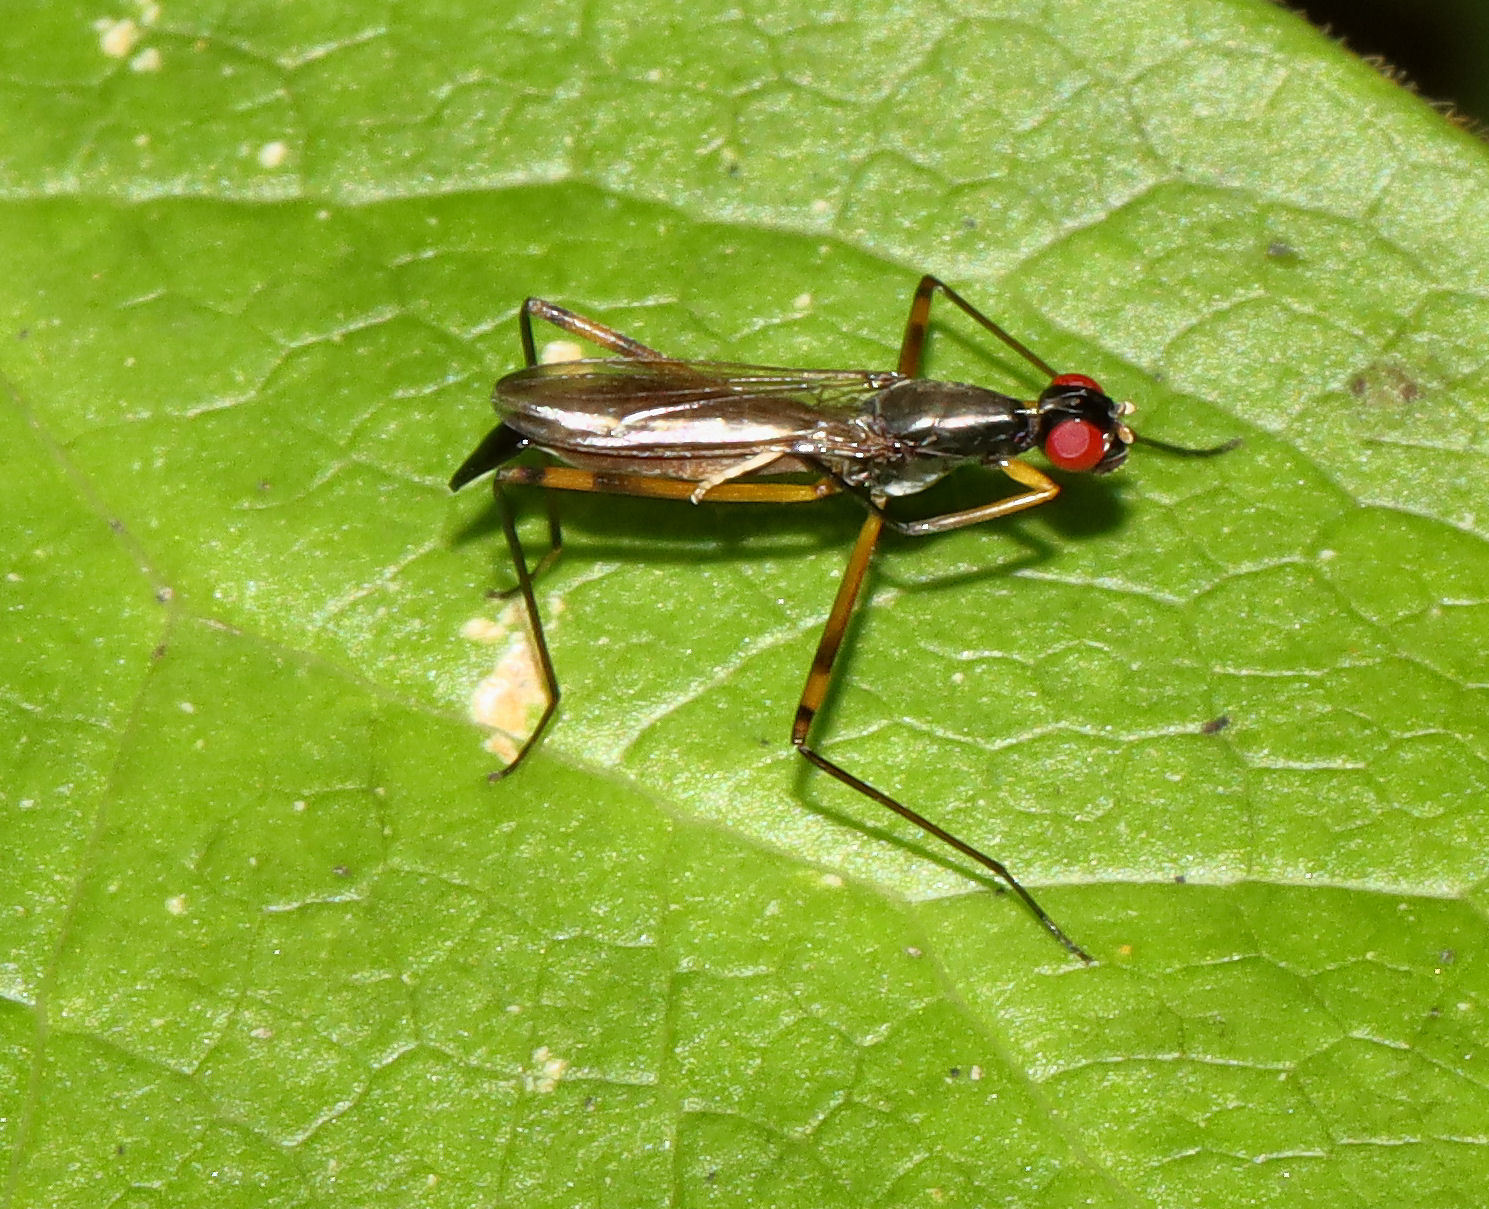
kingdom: Animalia
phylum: Arthropoda
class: Insecta
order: Diptera
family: Micropezidae
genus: Rainieria
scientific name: Rainieria antennaepes
